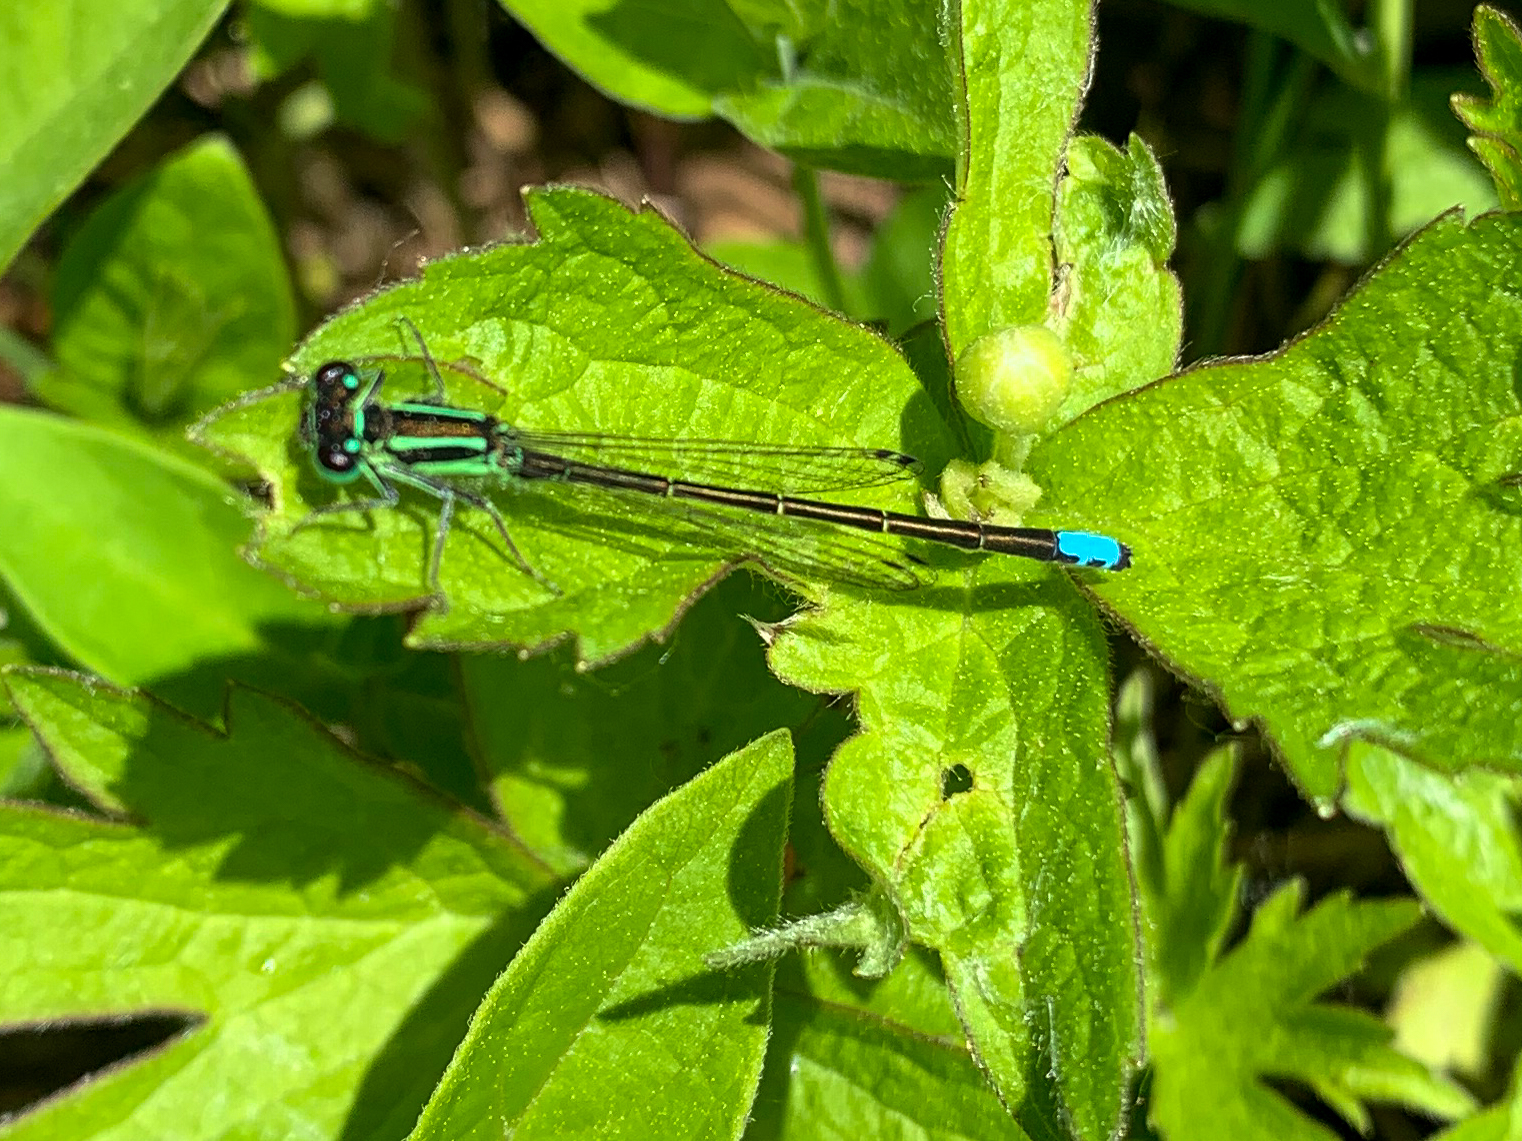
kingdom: Animalia
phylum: Arthropoda
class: Insecta
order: Odonata
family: Coenagrionidae
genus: Ischnura
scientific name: Ischnura verticalis
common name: Eastern forktail
